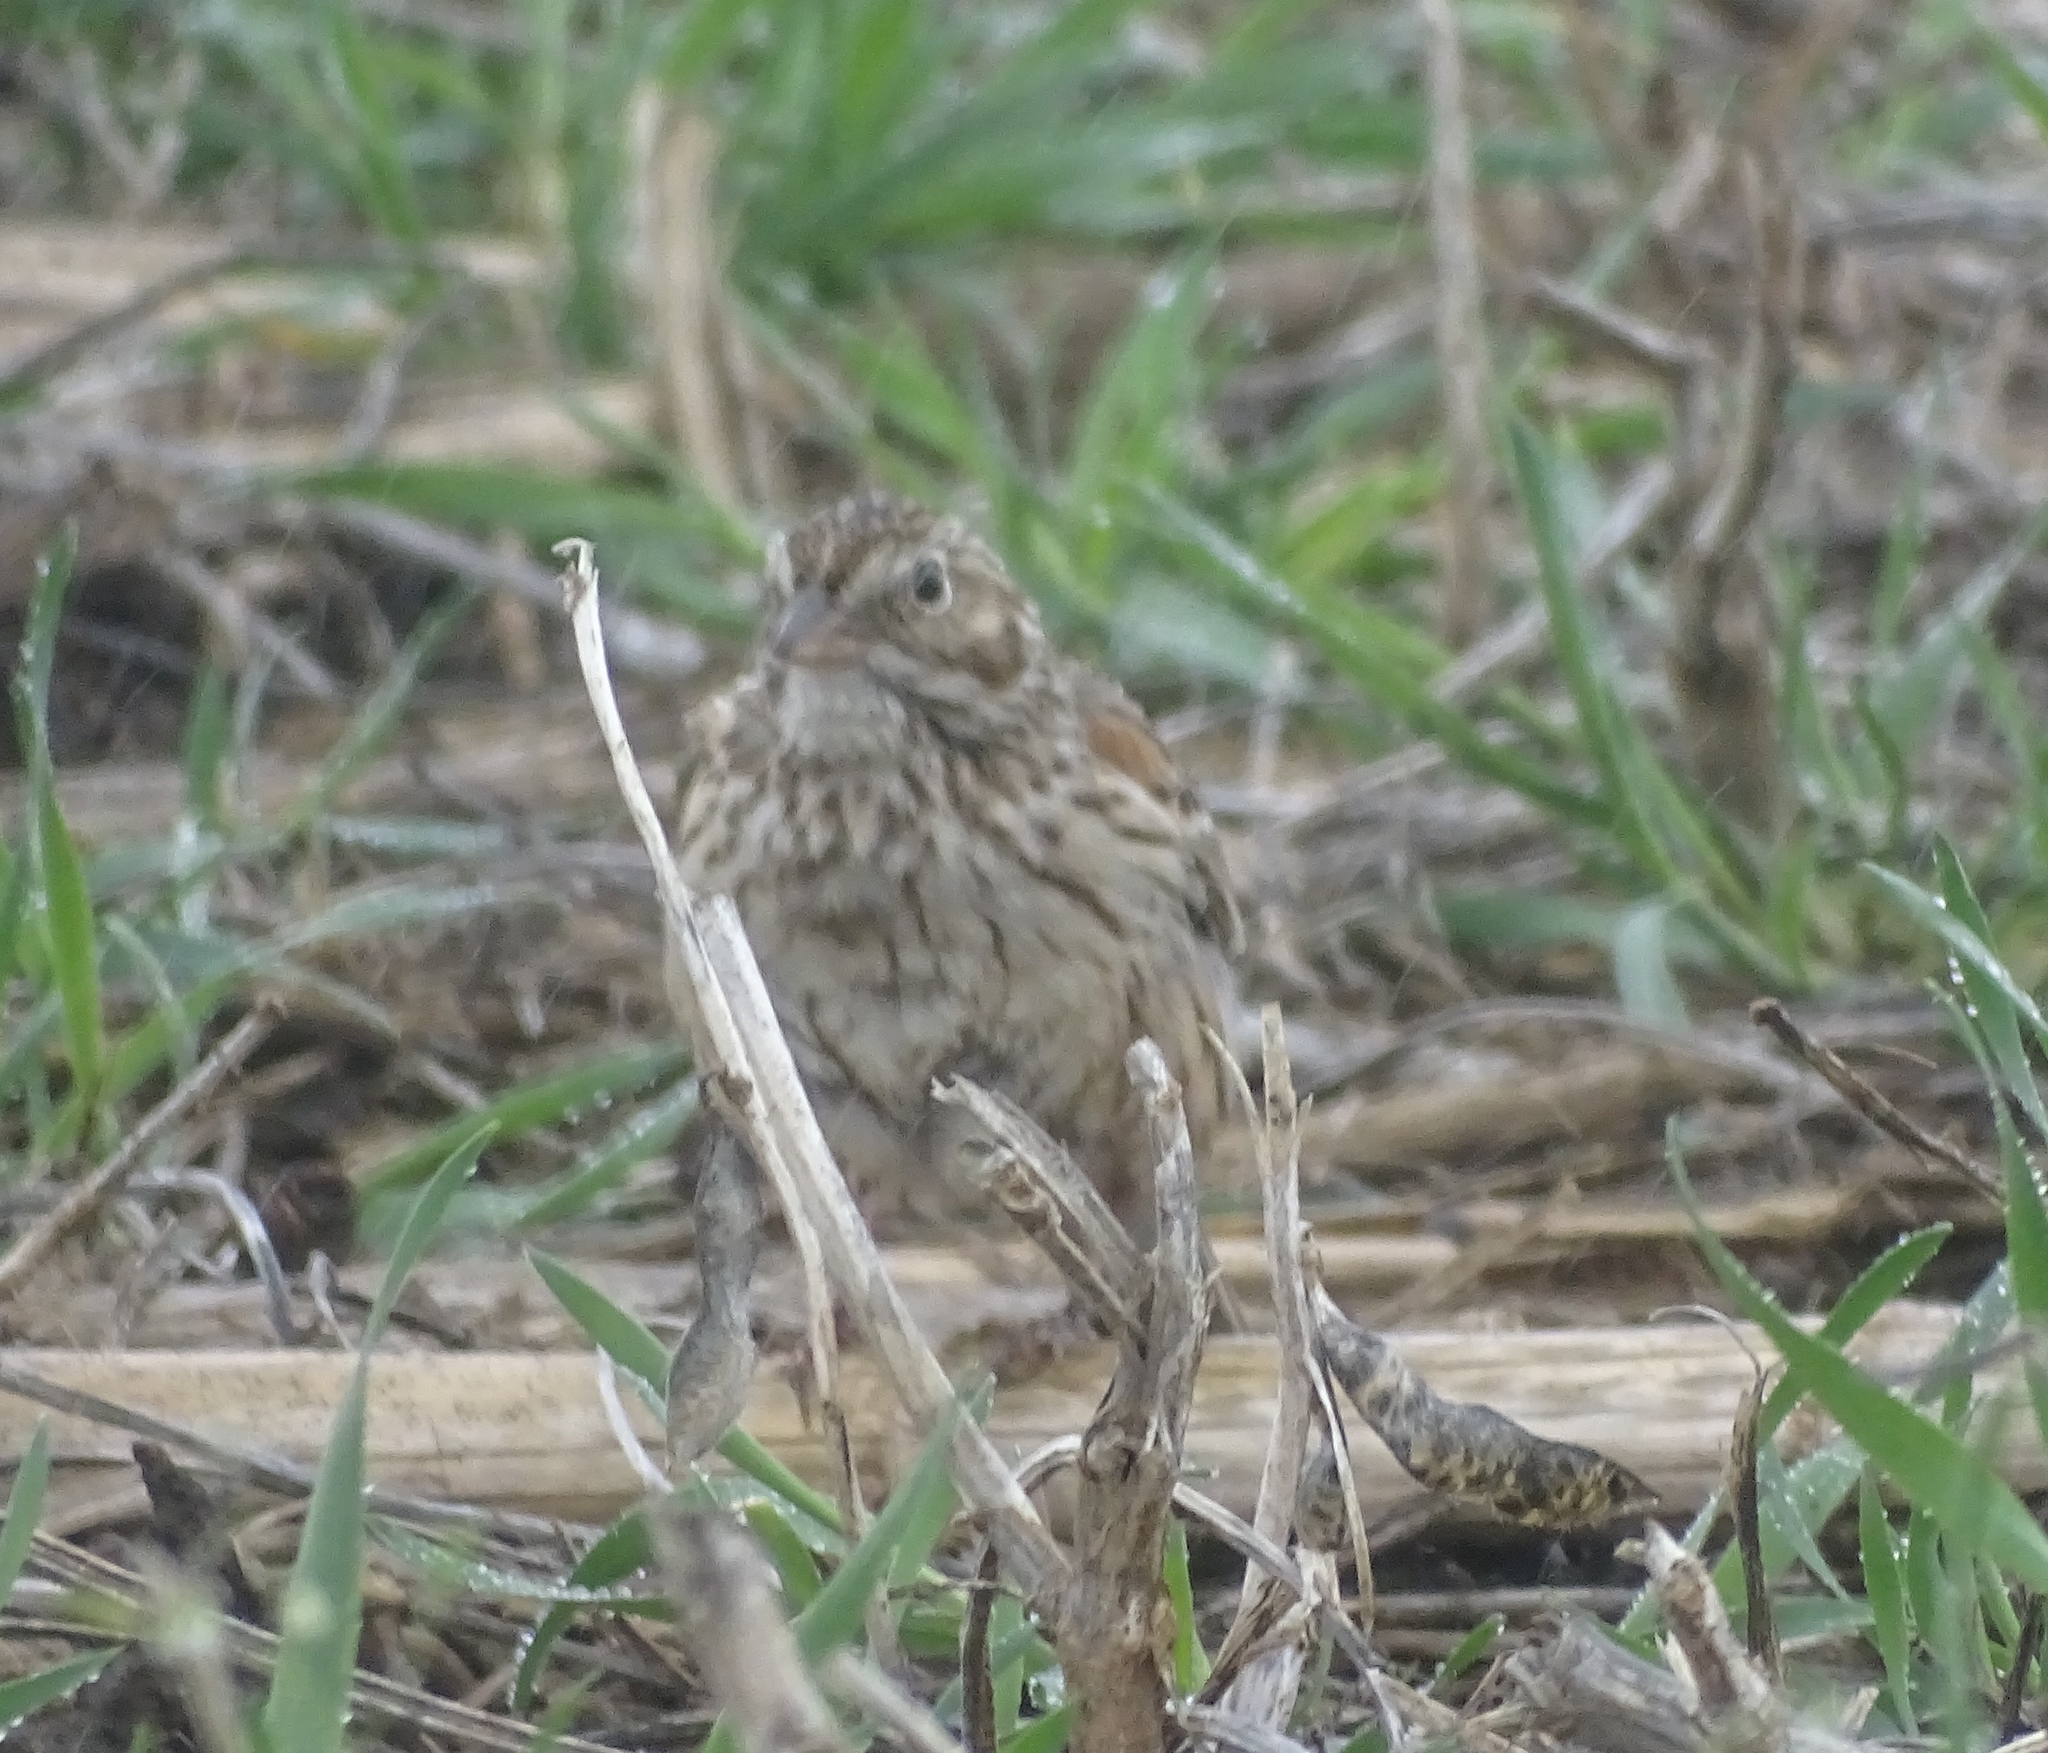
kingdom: Animalia
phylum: Chordata
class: Aves
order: Passeriformes
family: Passerellidae
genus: Pooecetes
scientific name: Pooecetes gramineus
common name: Vesper sparrow
